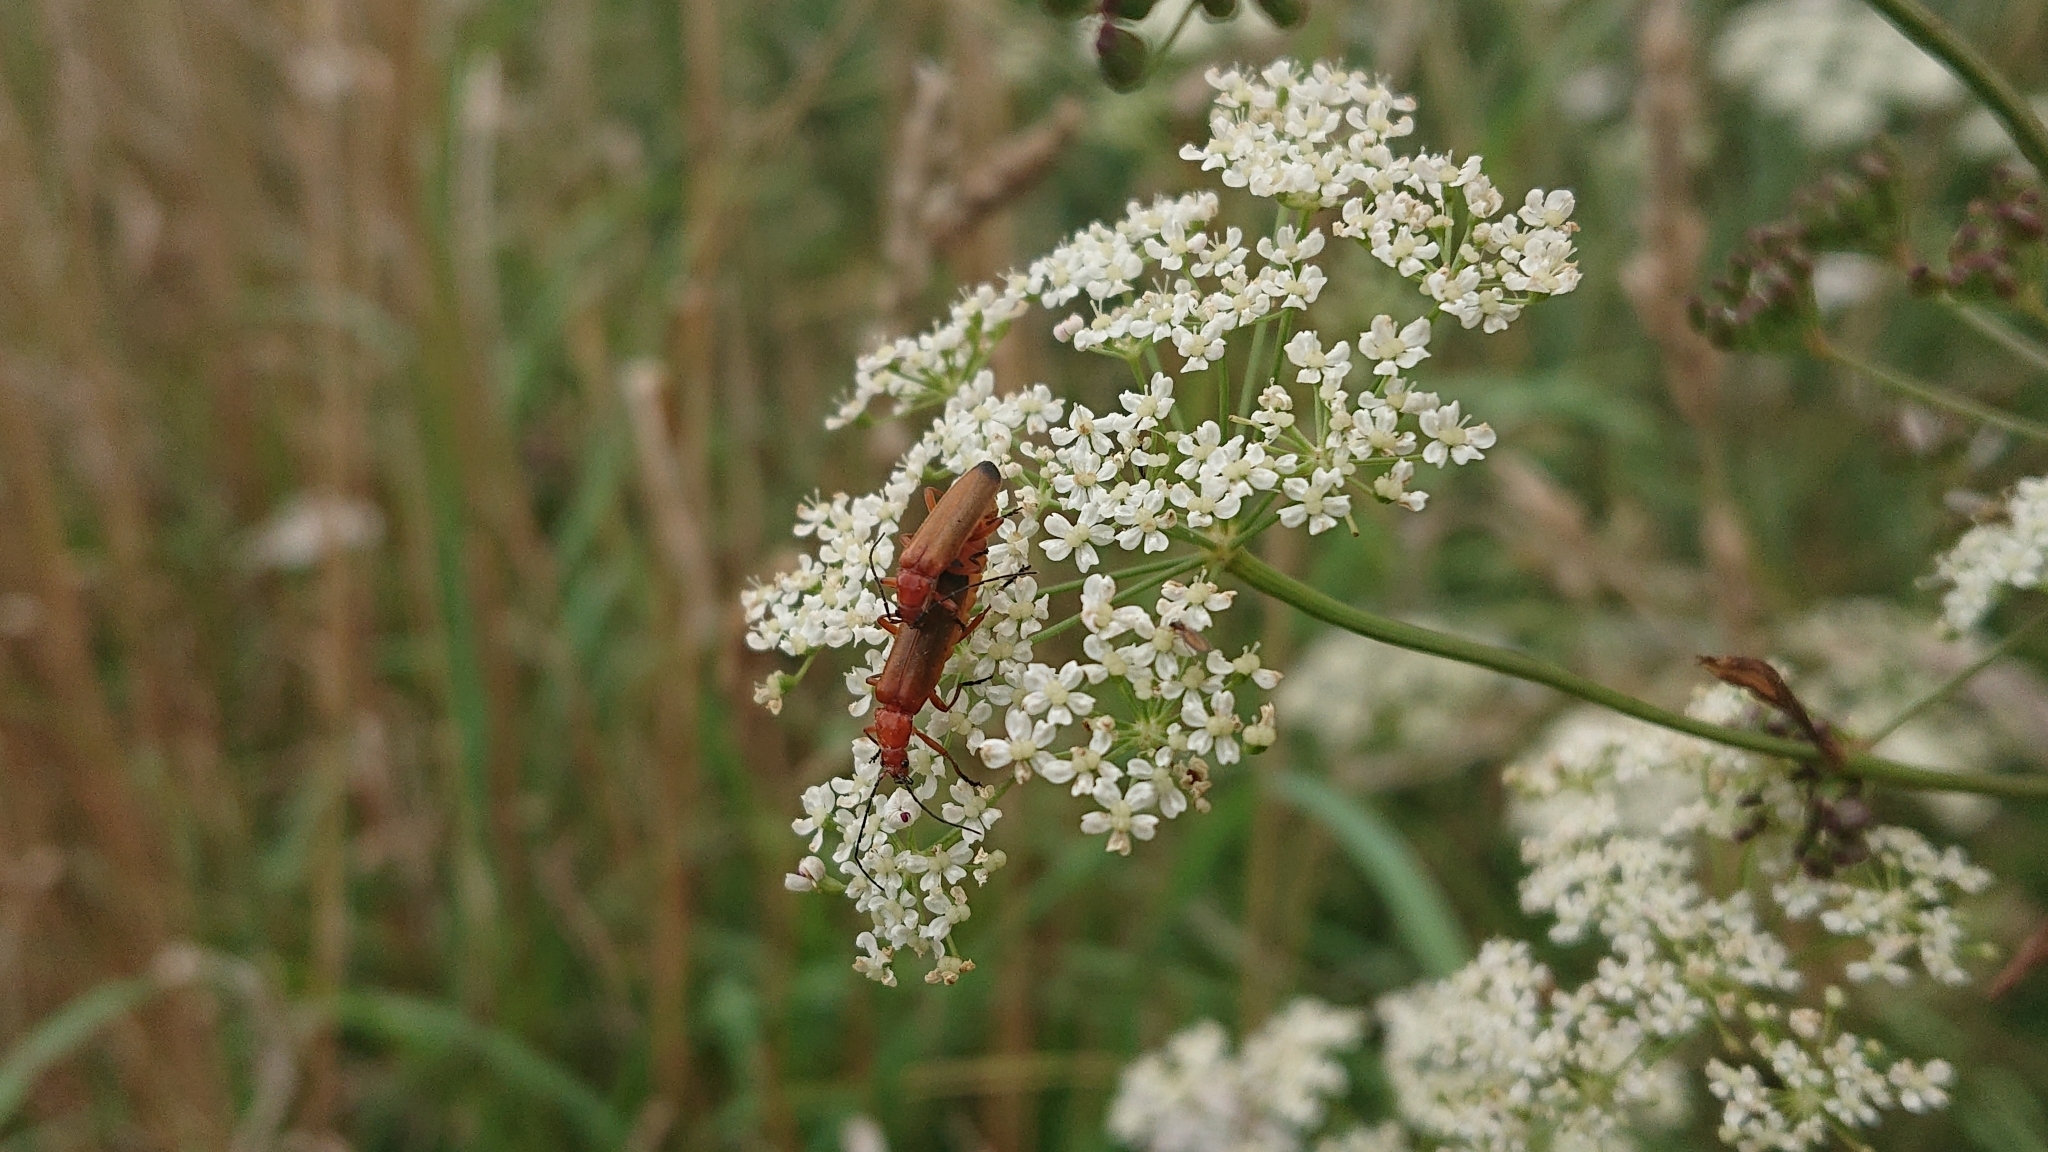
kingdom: Animalia
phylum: Arthropoda
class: Insecta
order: Coleoptera
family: Cantharidae
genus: Rhagonycha
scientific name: Rhagonycha fulva
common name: Common red soldier beetle
